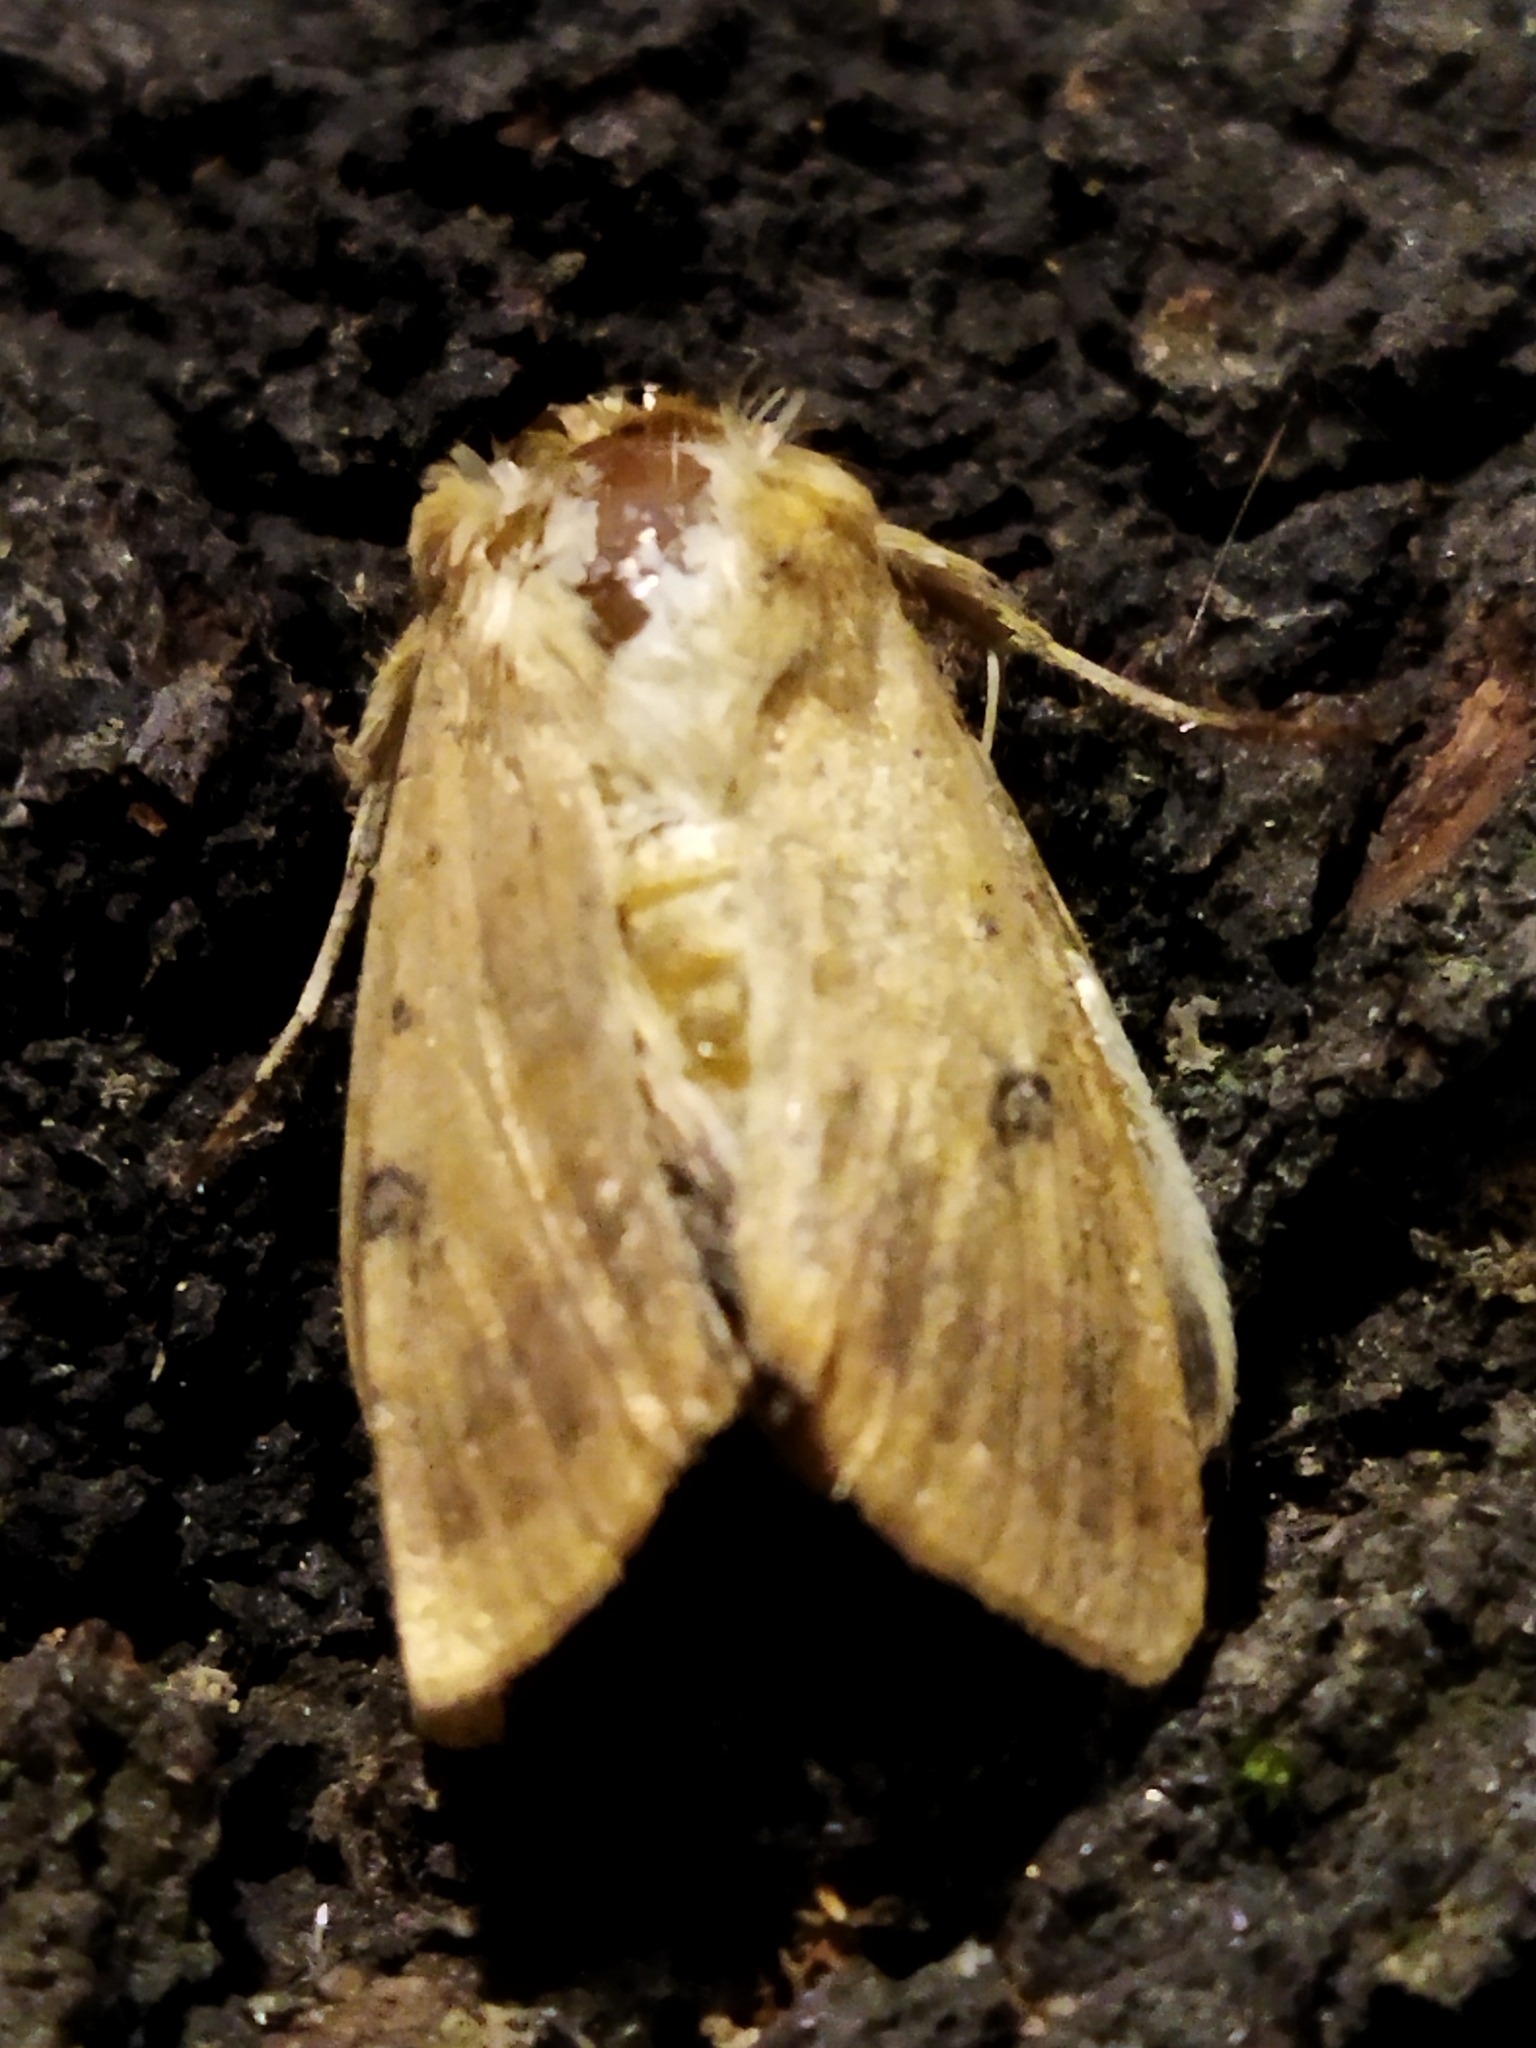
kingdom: Animalia
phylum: Arthropoda
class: Insecta
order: Lepidoptera
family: Noctuidae
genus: Helicoverpa
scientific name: Helicoverpa armigera
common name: Cotton bollworm
